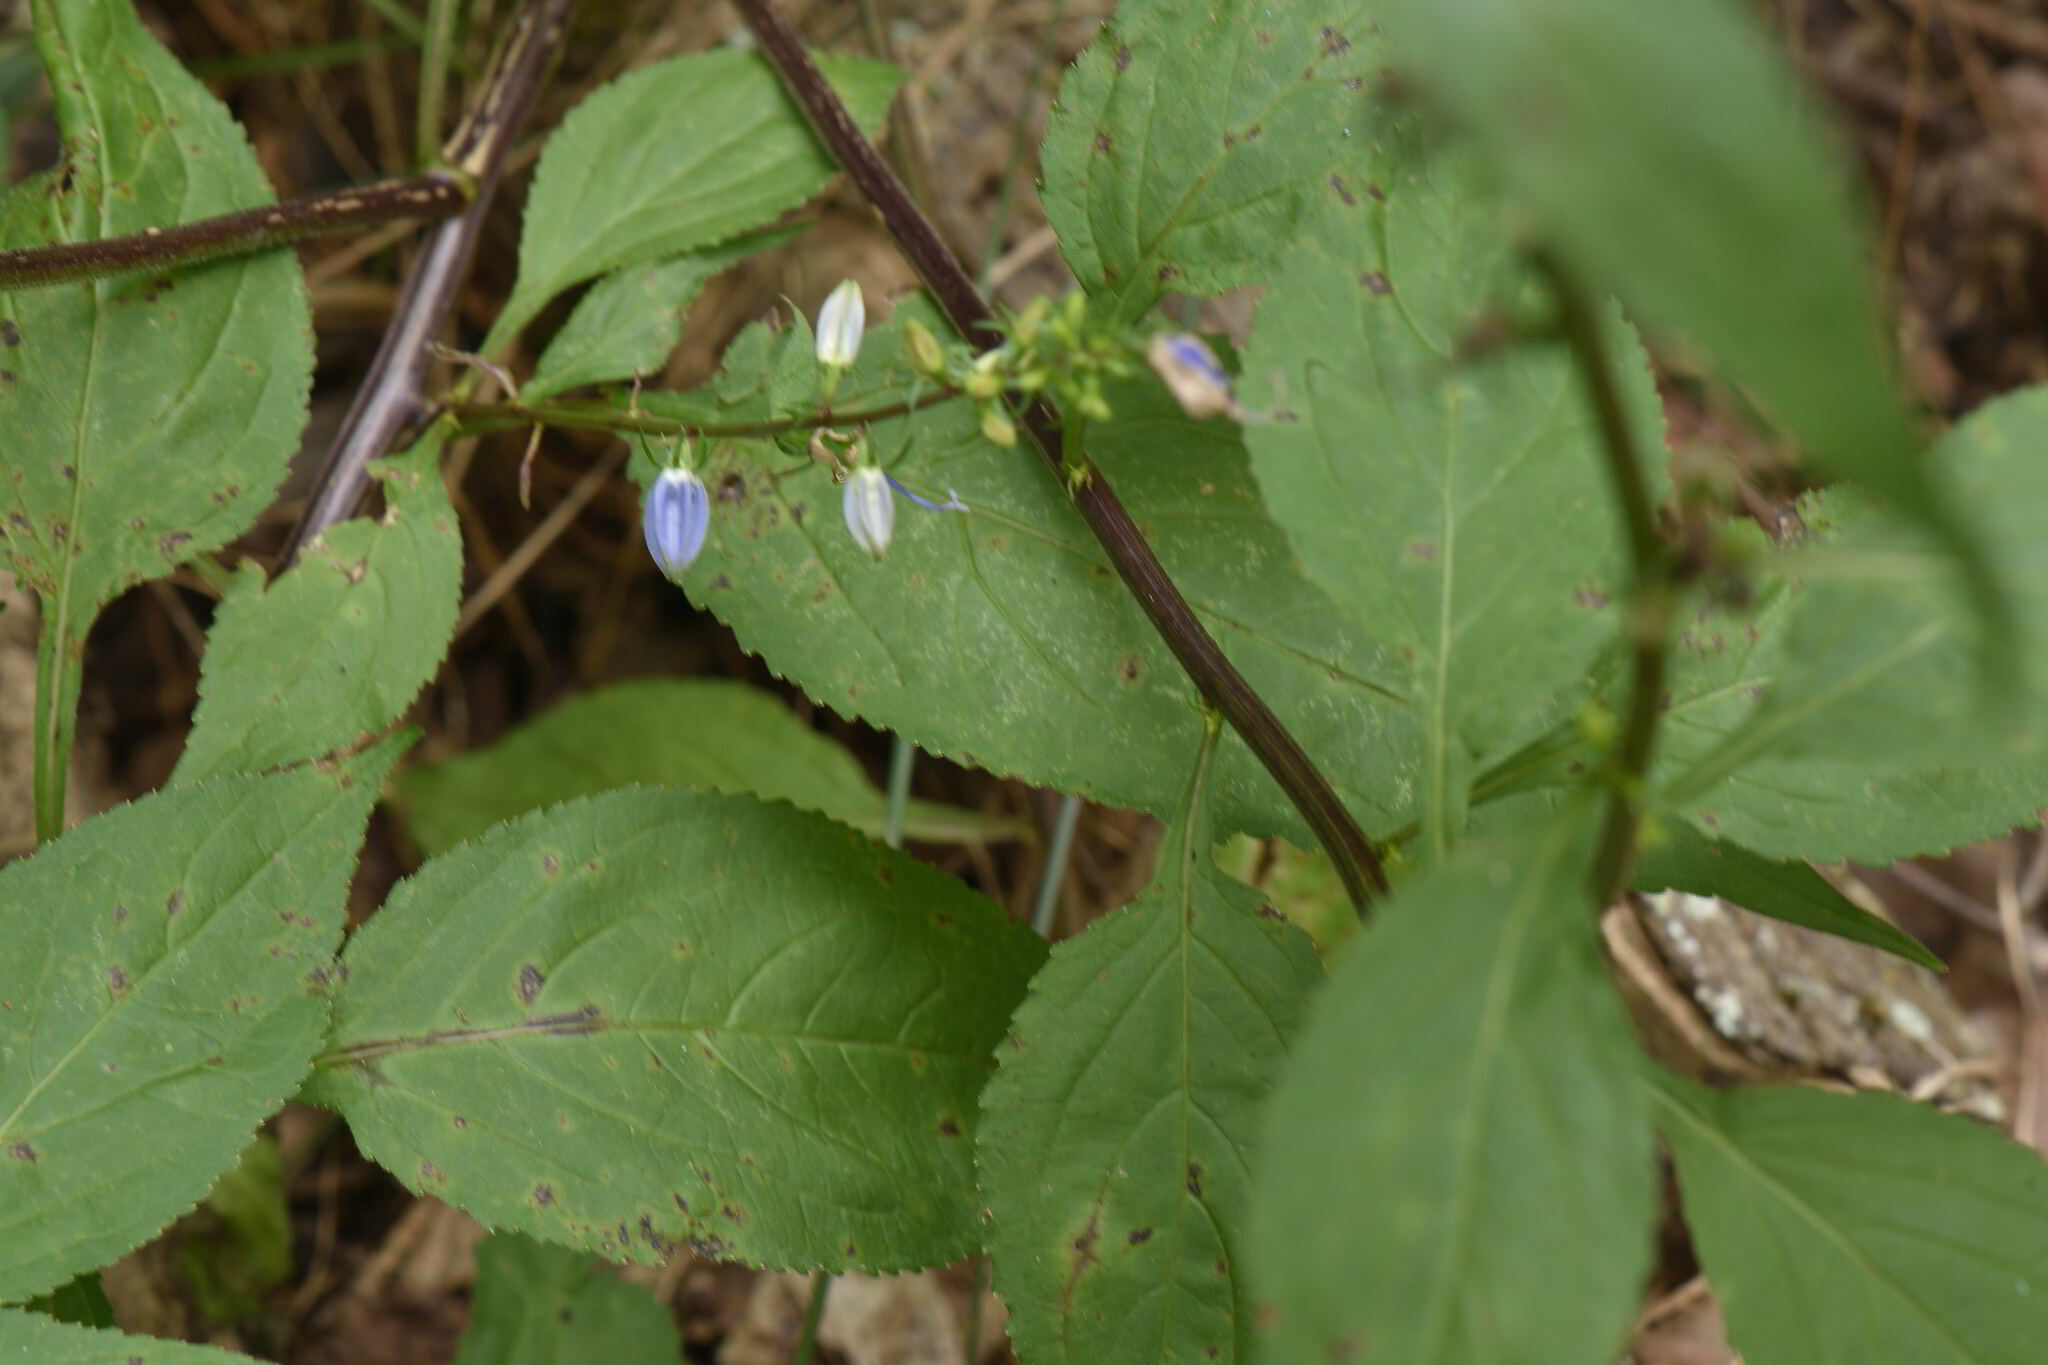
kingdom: Plantae
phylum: Tracheophyta
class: Magnoliopsida
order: Asterales
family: Campanulaceae
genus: Campanulastrum
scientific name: Campanulastrum americanum
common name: American bellflower
